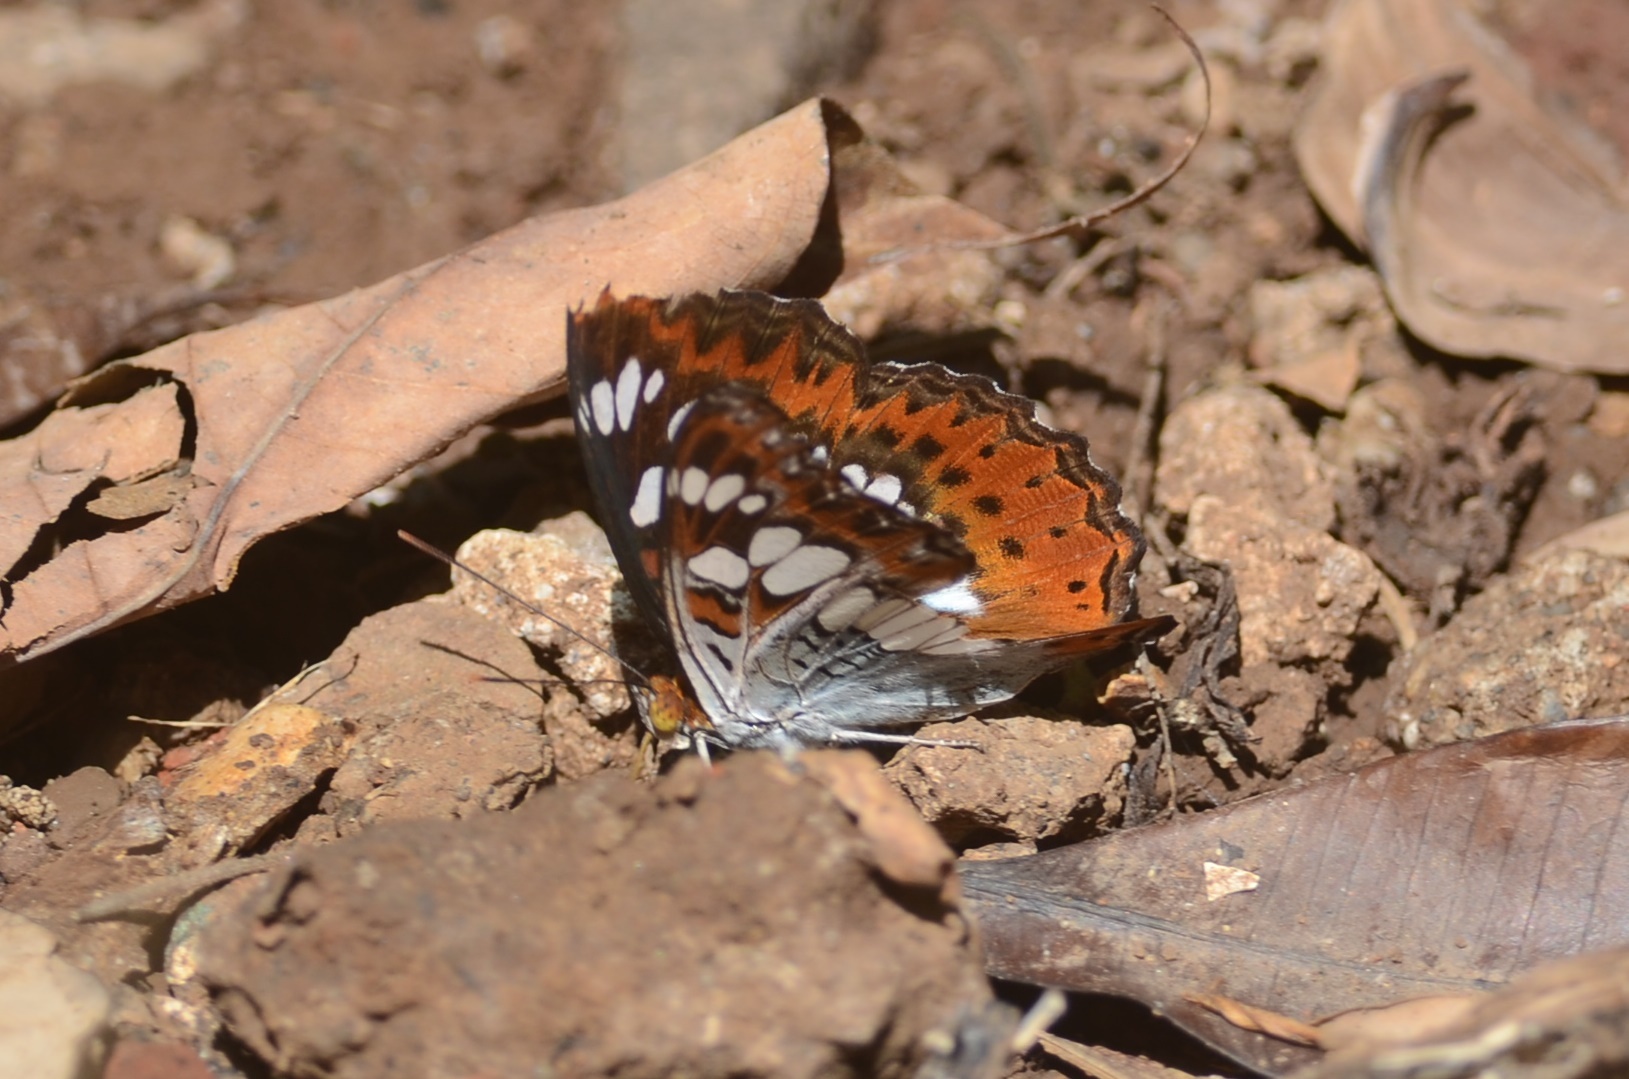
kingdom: Animalia
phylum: Arthropoda
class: Insecta
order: Lepidoptera
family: Nymphalidae
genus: Limenitis
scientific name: Limenitis Moduza procris
